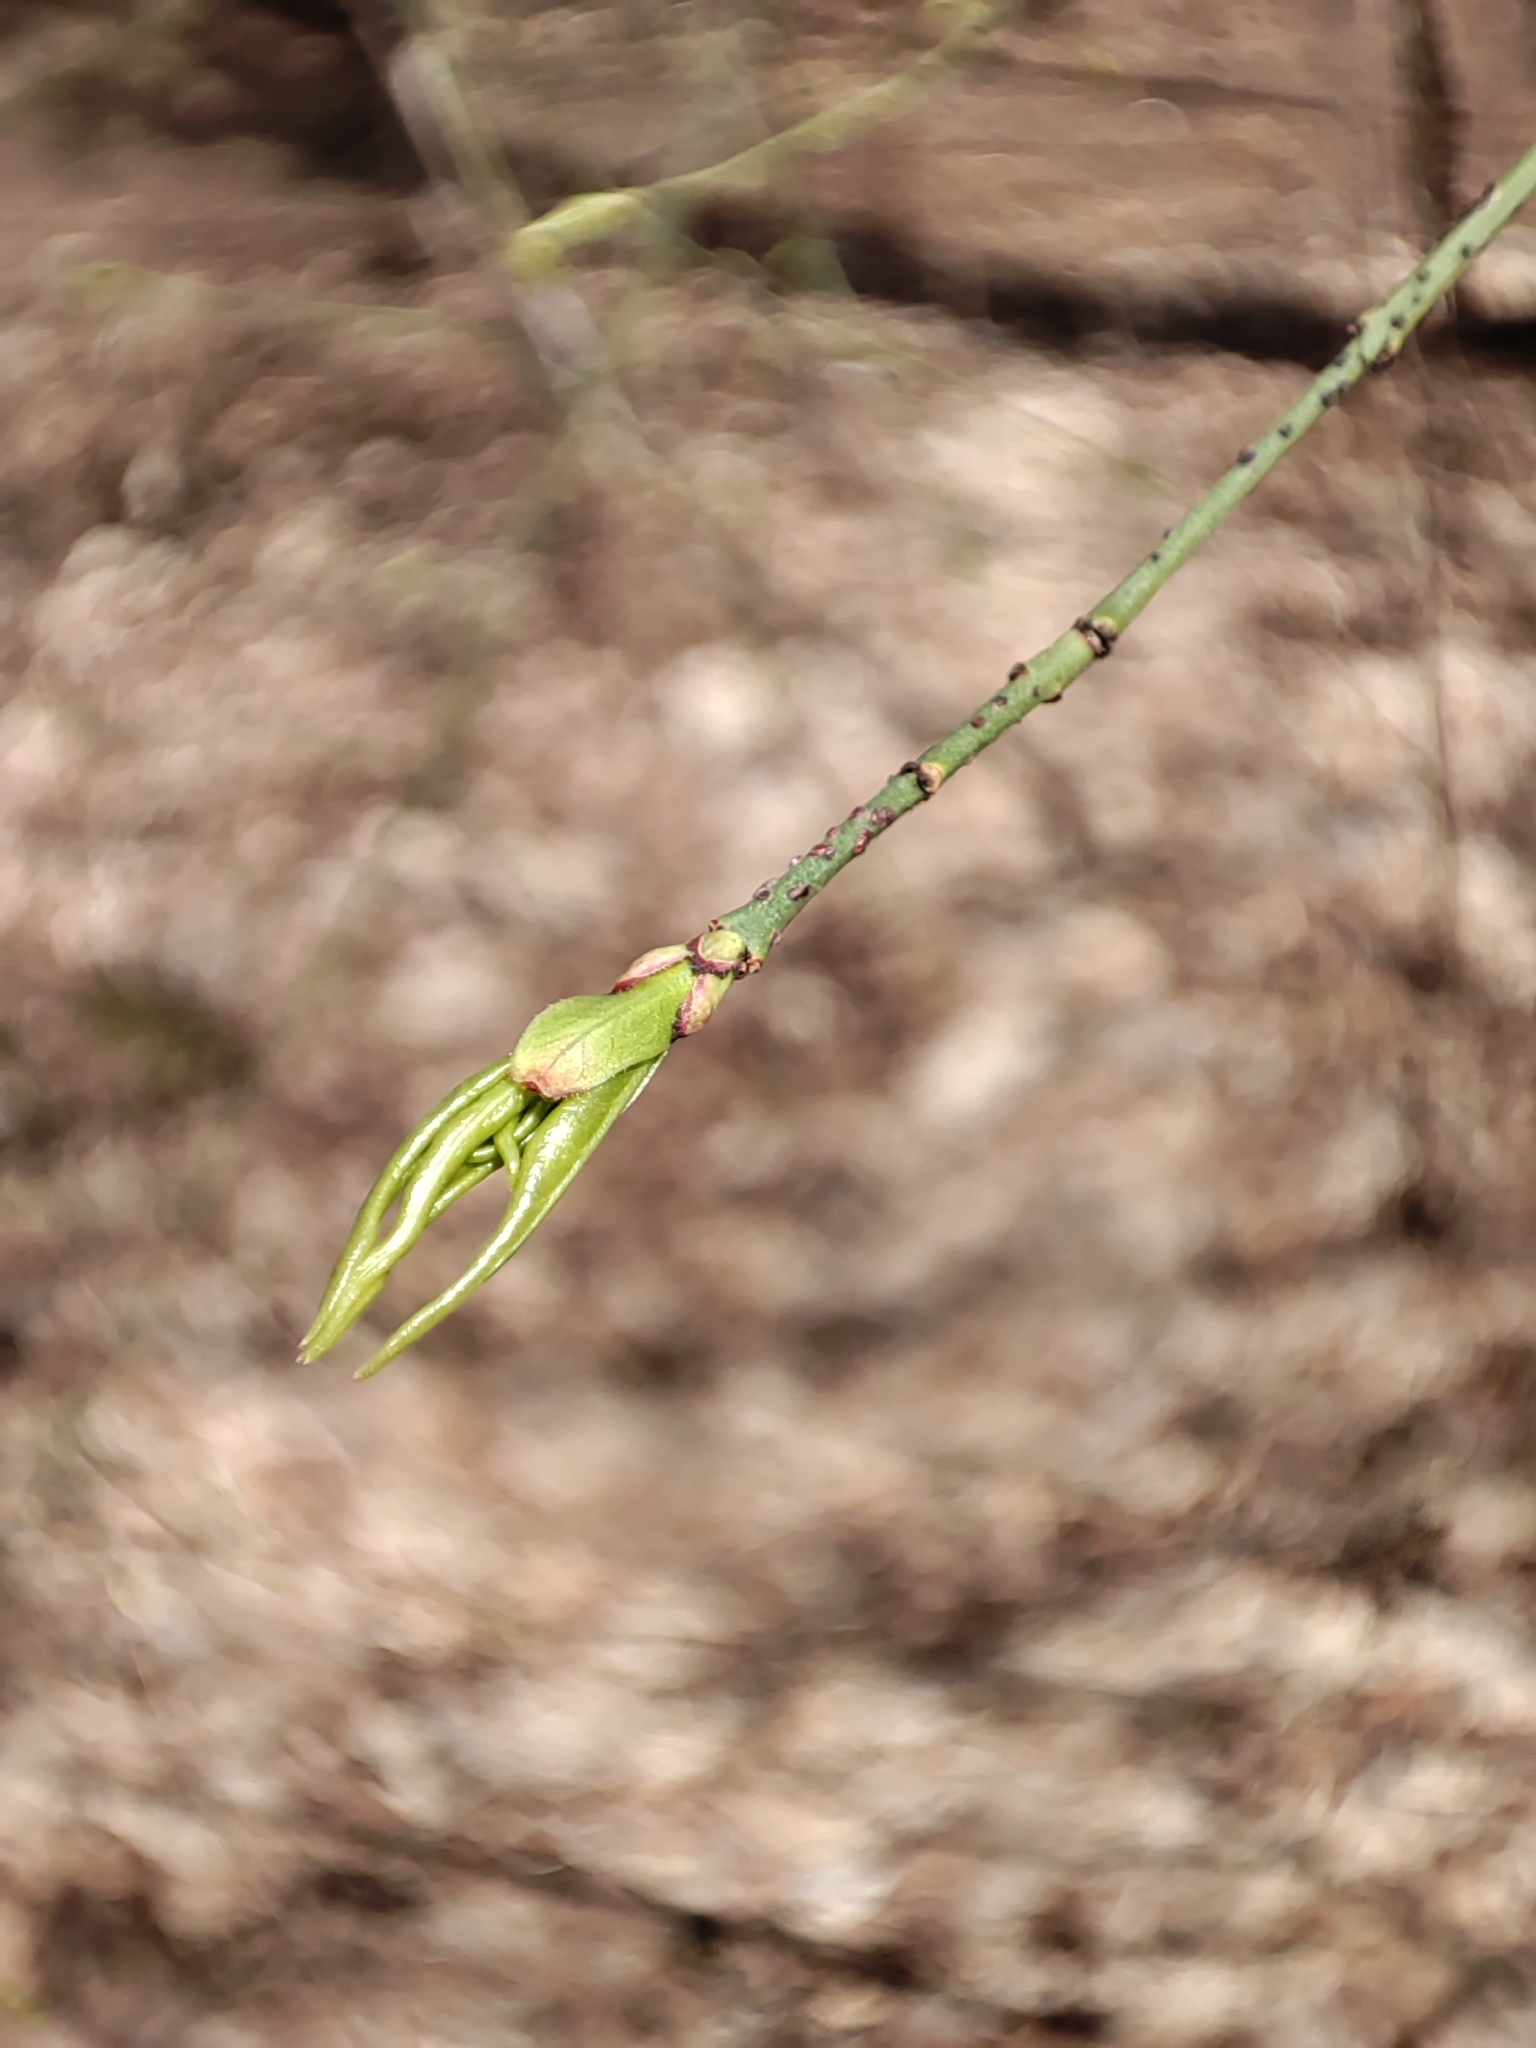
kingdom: Plantae
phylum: Tracheophyta
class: Magnoliopsida
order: Celastrales
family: Celastraceae
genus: Euonymus
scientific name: Euonymus verrucosus
